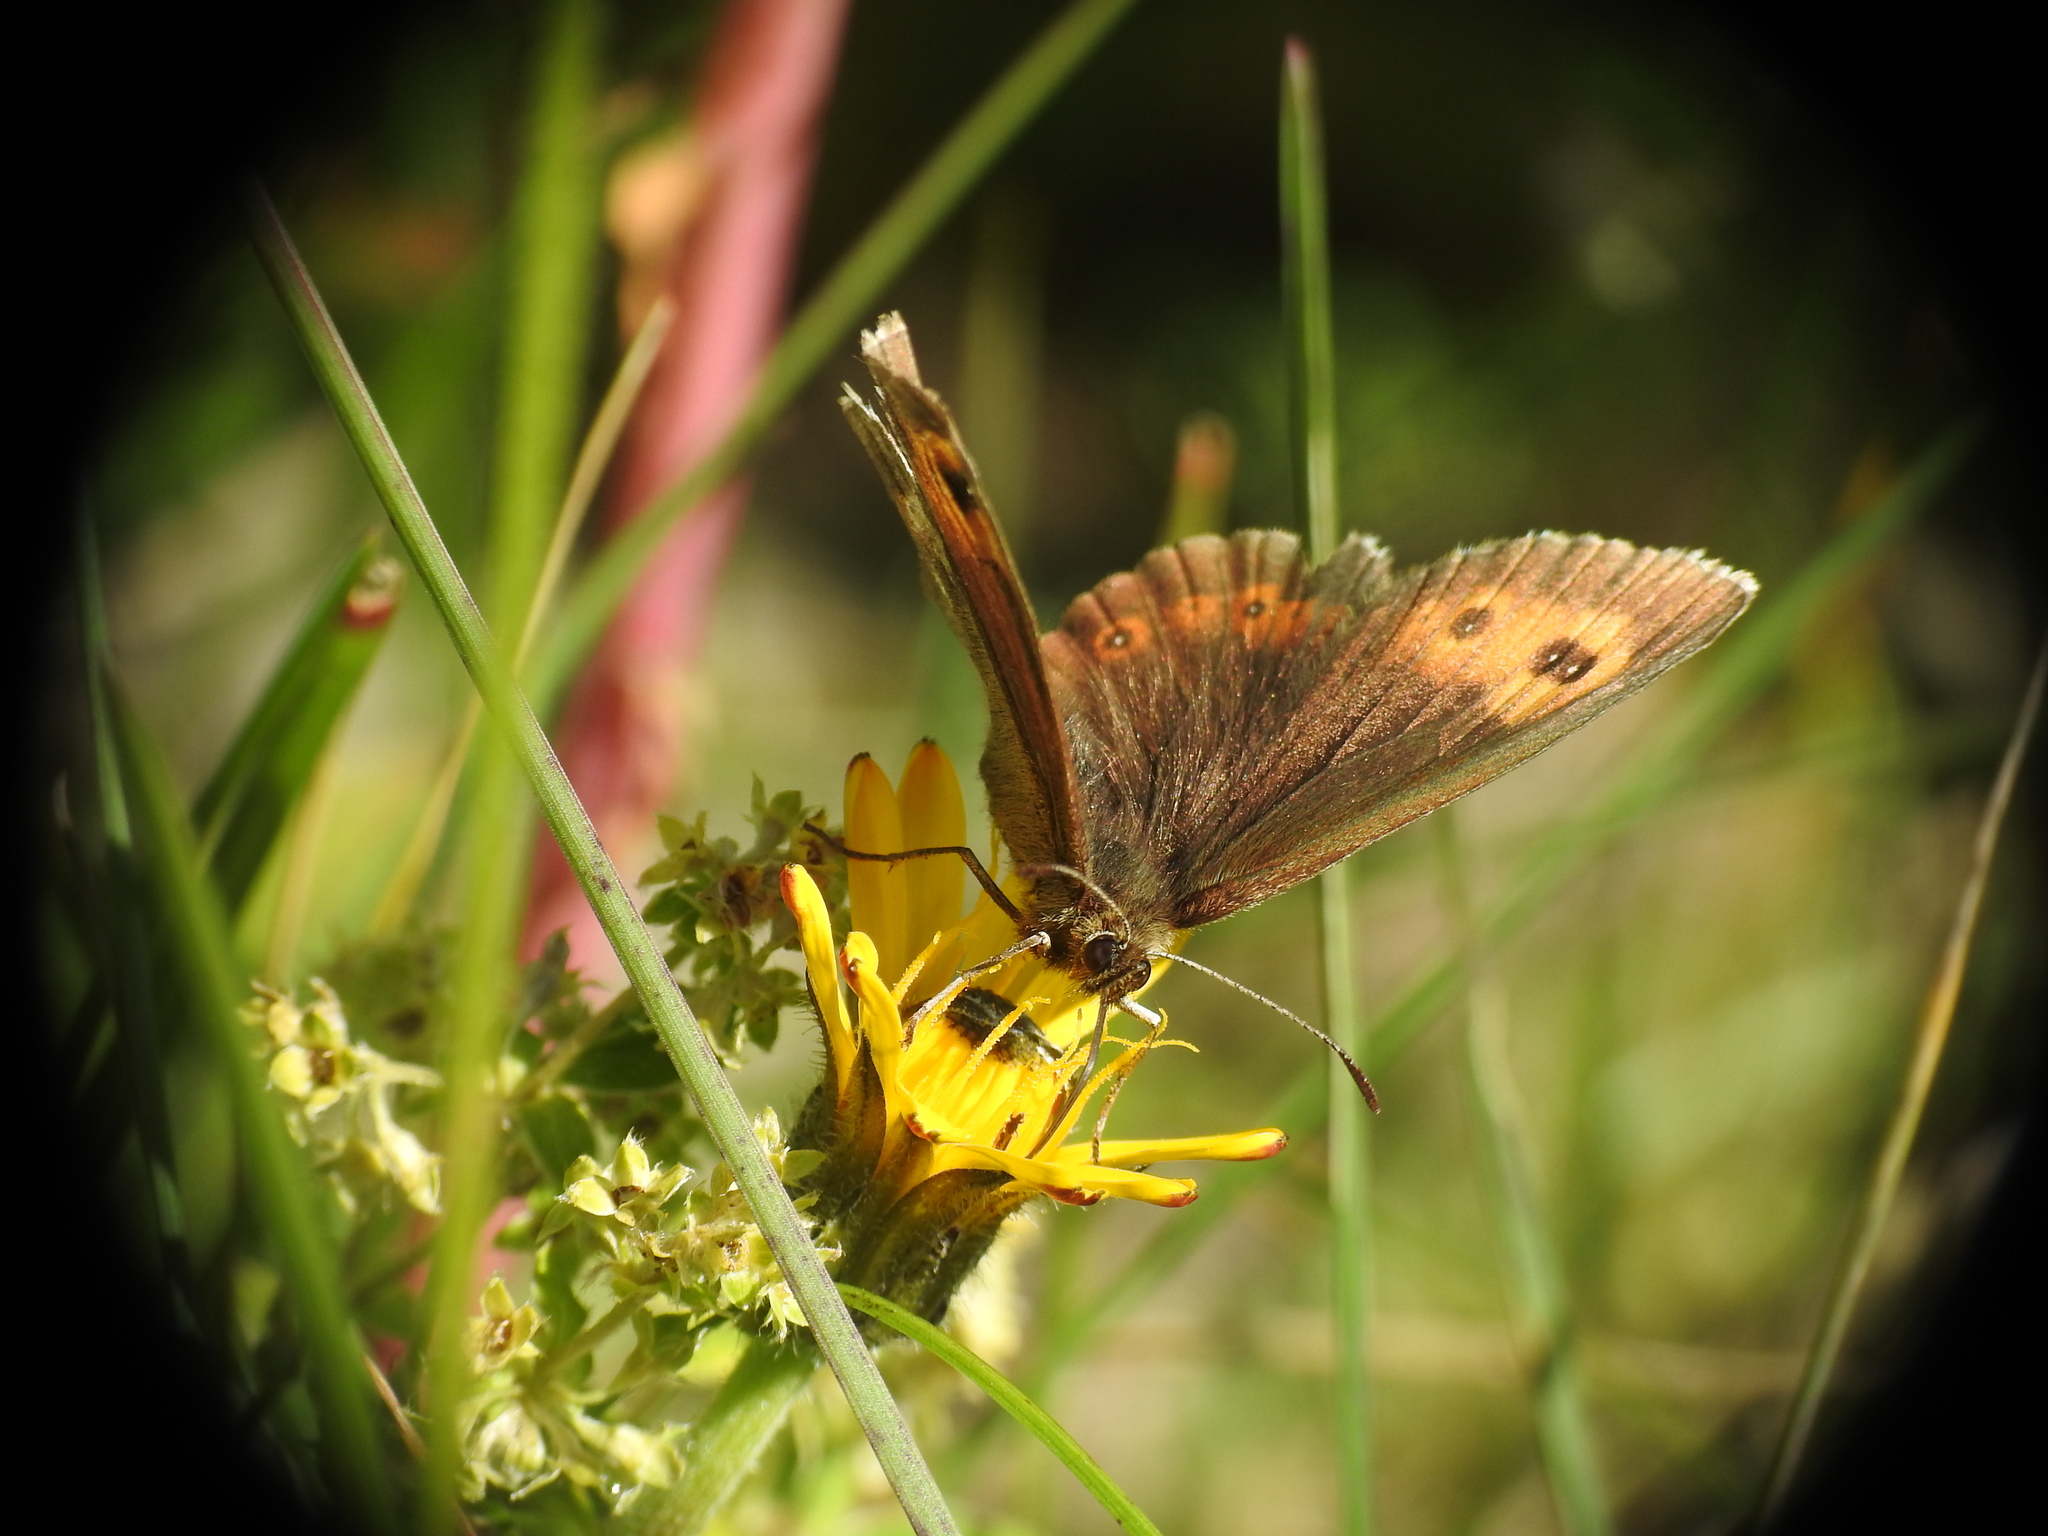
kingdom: Animalia
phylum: Arthropoda
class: Insecta
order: Lepidoptera
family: Nymphalidae
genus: Erebia
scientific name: Erebia euryale
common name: Large ringlet
